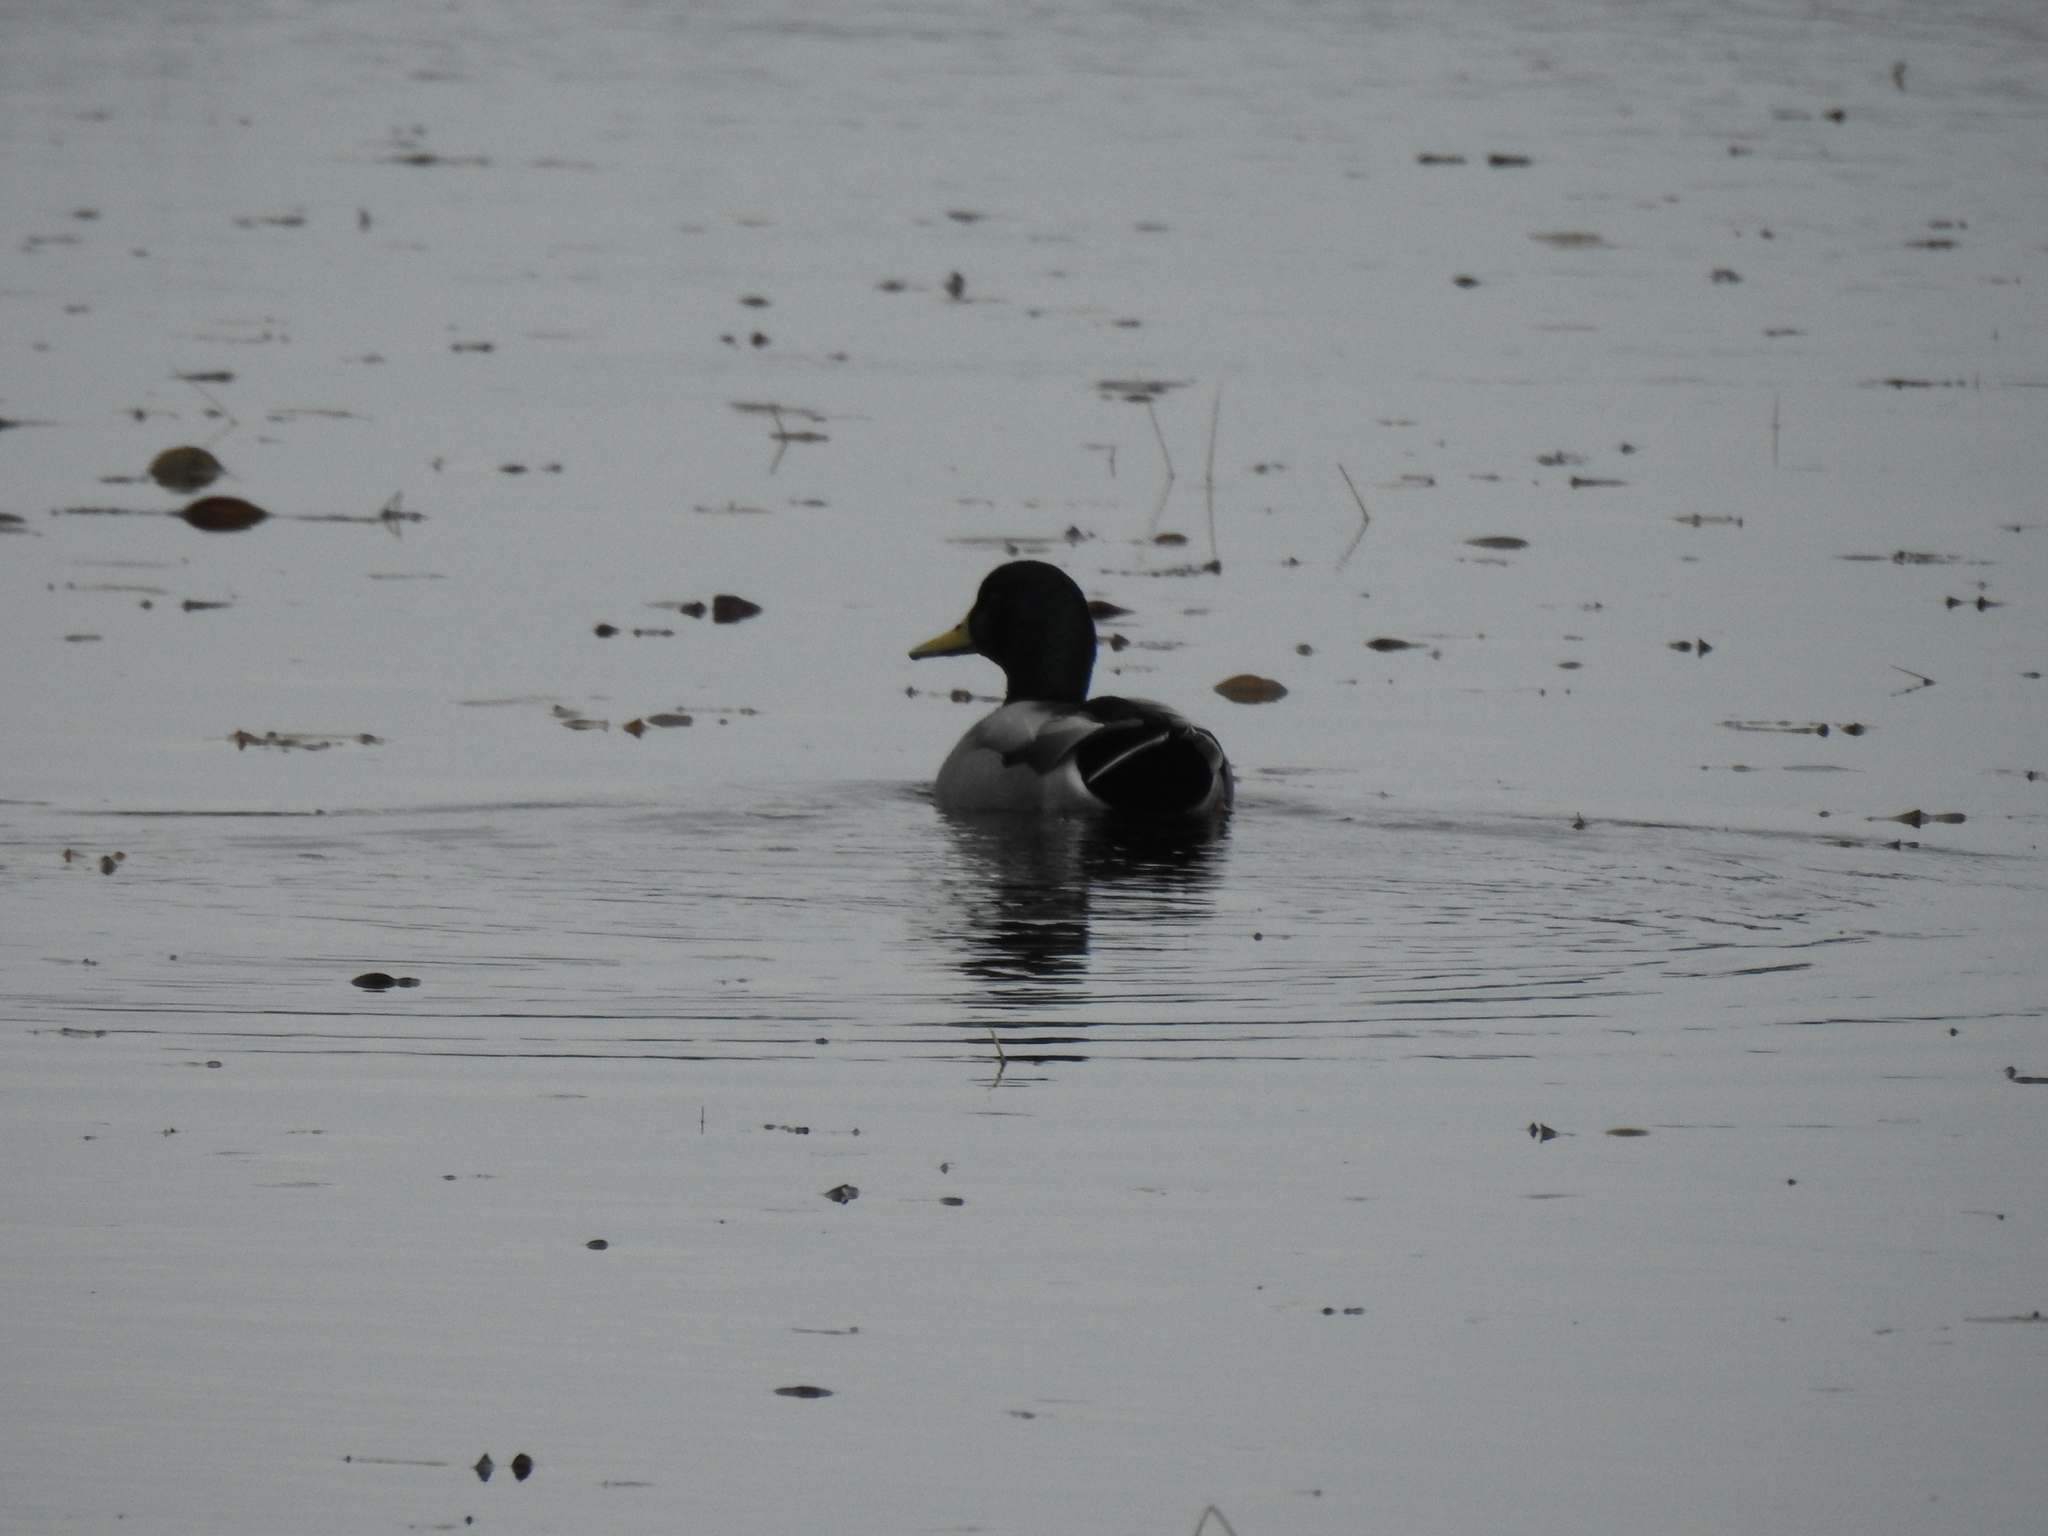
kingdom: Animalia
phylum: Chordata
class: Aves
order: Anseriformes
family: Anatidae
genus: Anas
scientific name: Anas platyrhynchos
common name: Mallard
